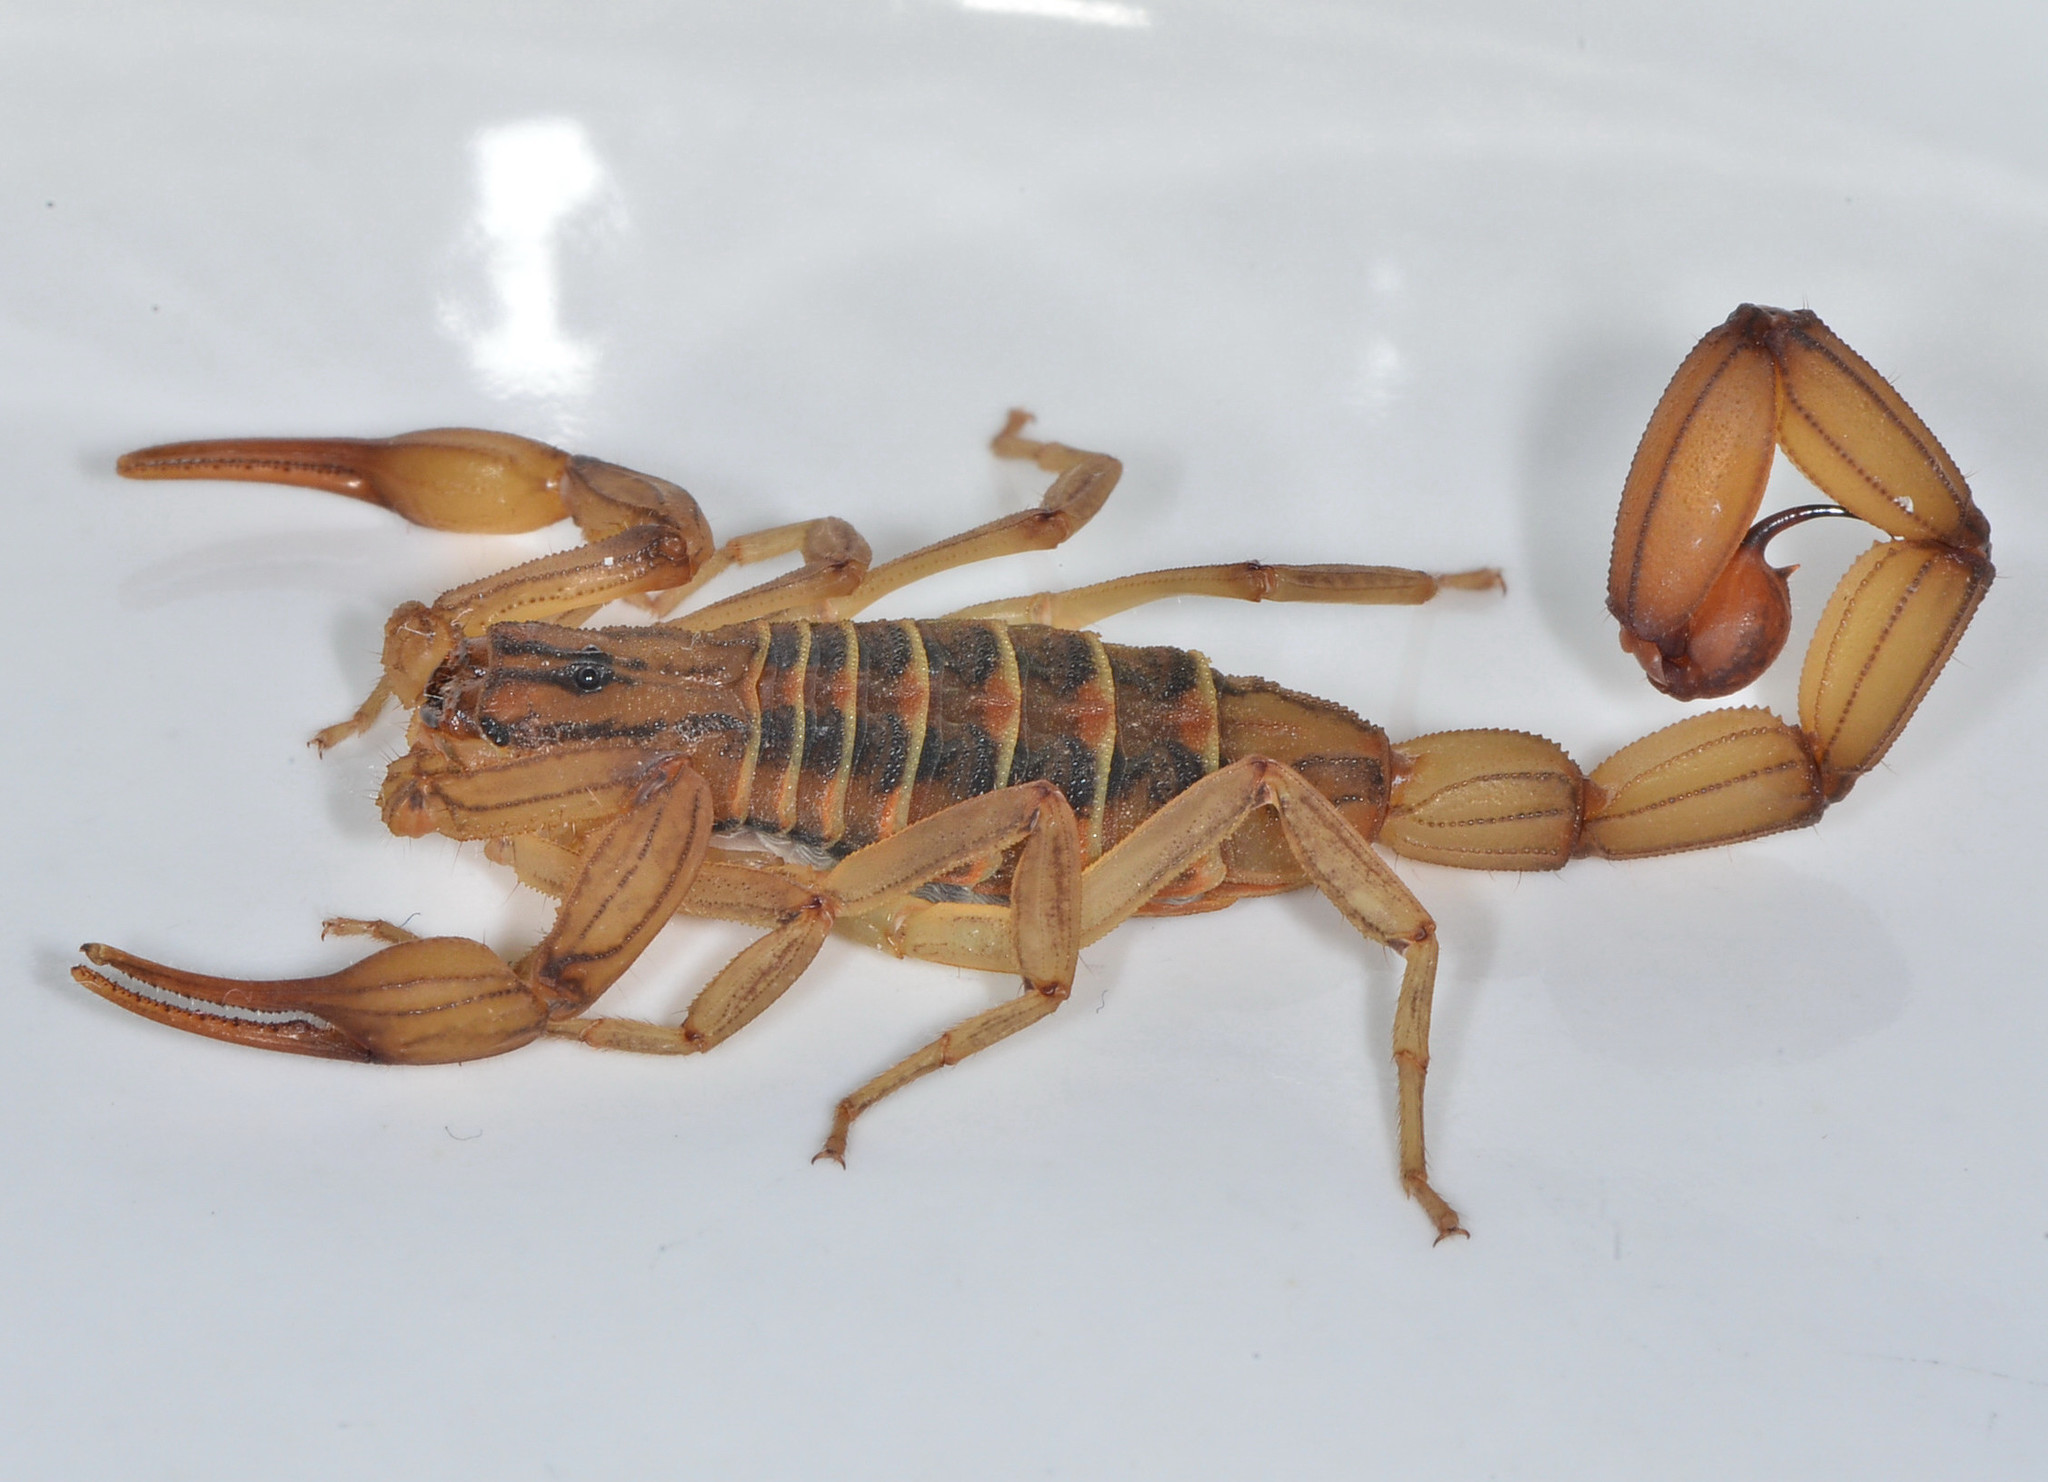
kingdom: Animalia
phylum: Arthropoda
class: Arachnida
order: Scorpiones
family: Buthidae
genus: Centruroides
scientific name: Centruroides elegans
